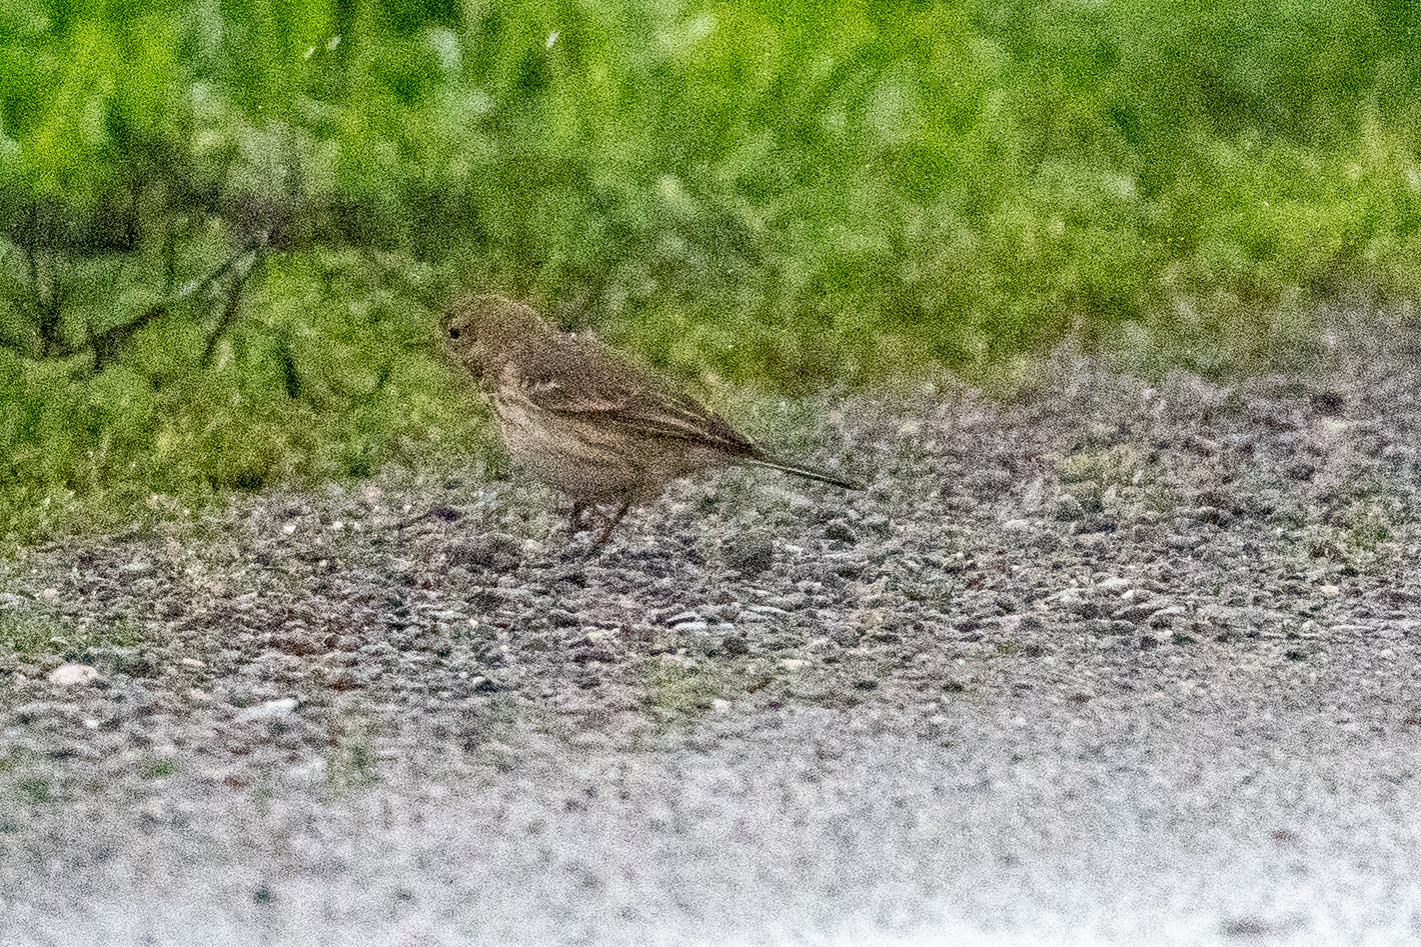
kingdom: Animalia
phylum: Chordata
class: Aves
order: Passeriformes
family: Motacillidae
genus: Anthus
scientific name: Anthus rubescens
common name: Buff-bellied pipit
